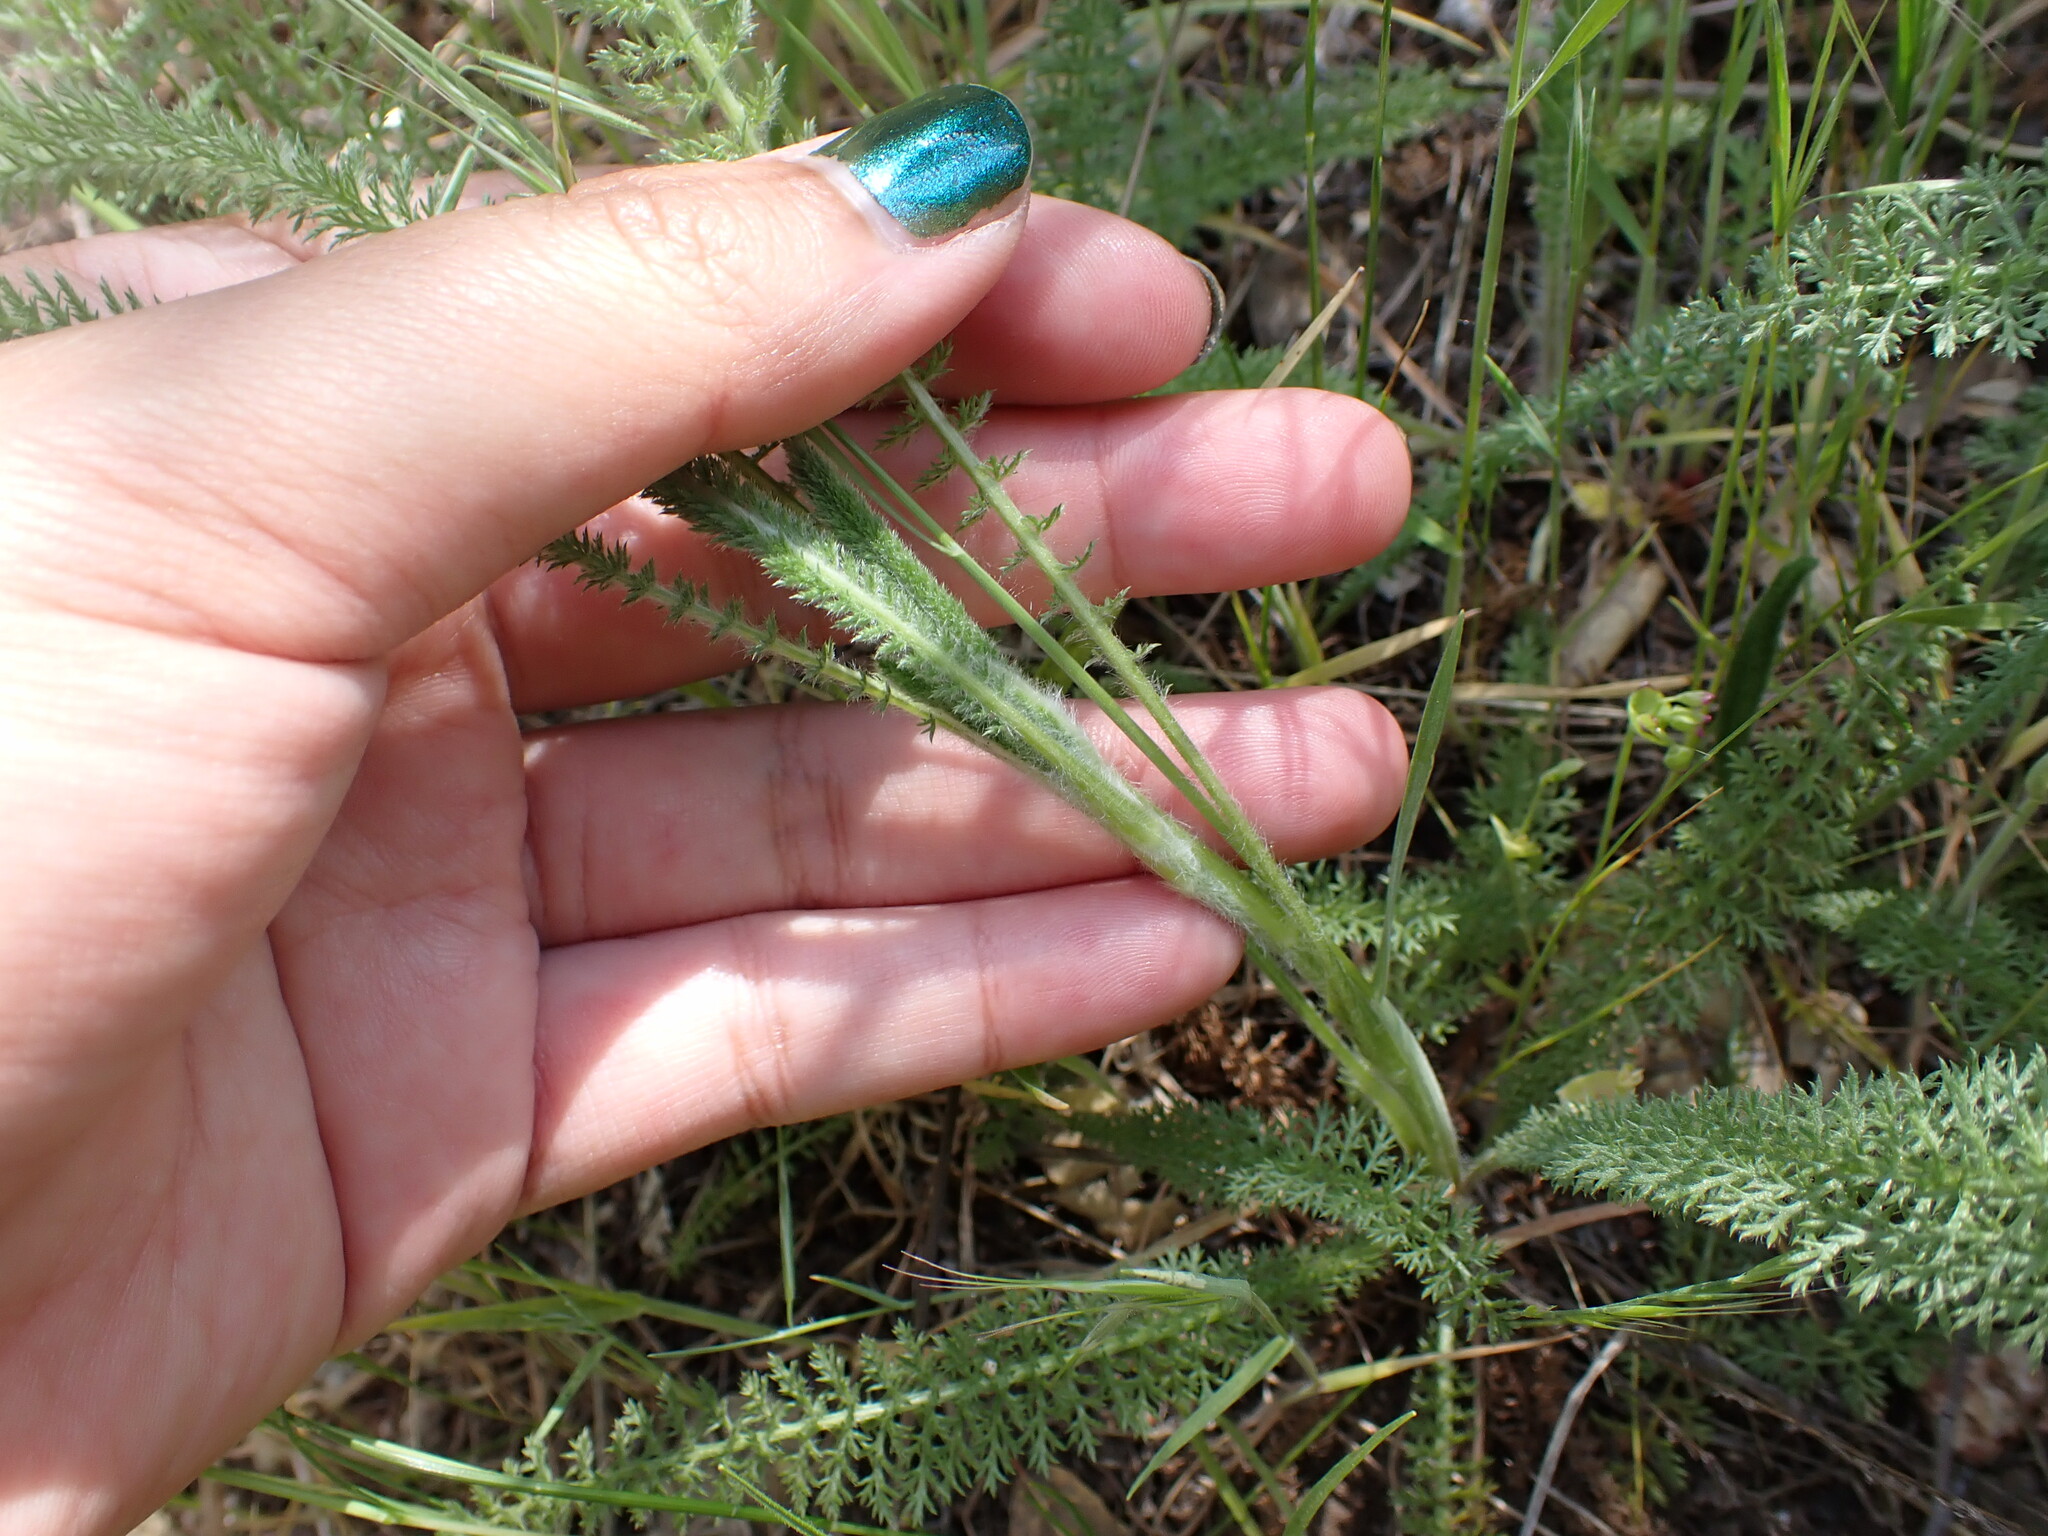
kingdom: Plantae
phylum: Tracheophyta
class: Magnoliopsida
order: Asterales
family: Asteraceae
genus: Achillea
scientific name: Achillea millefolium
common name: Yarrow
